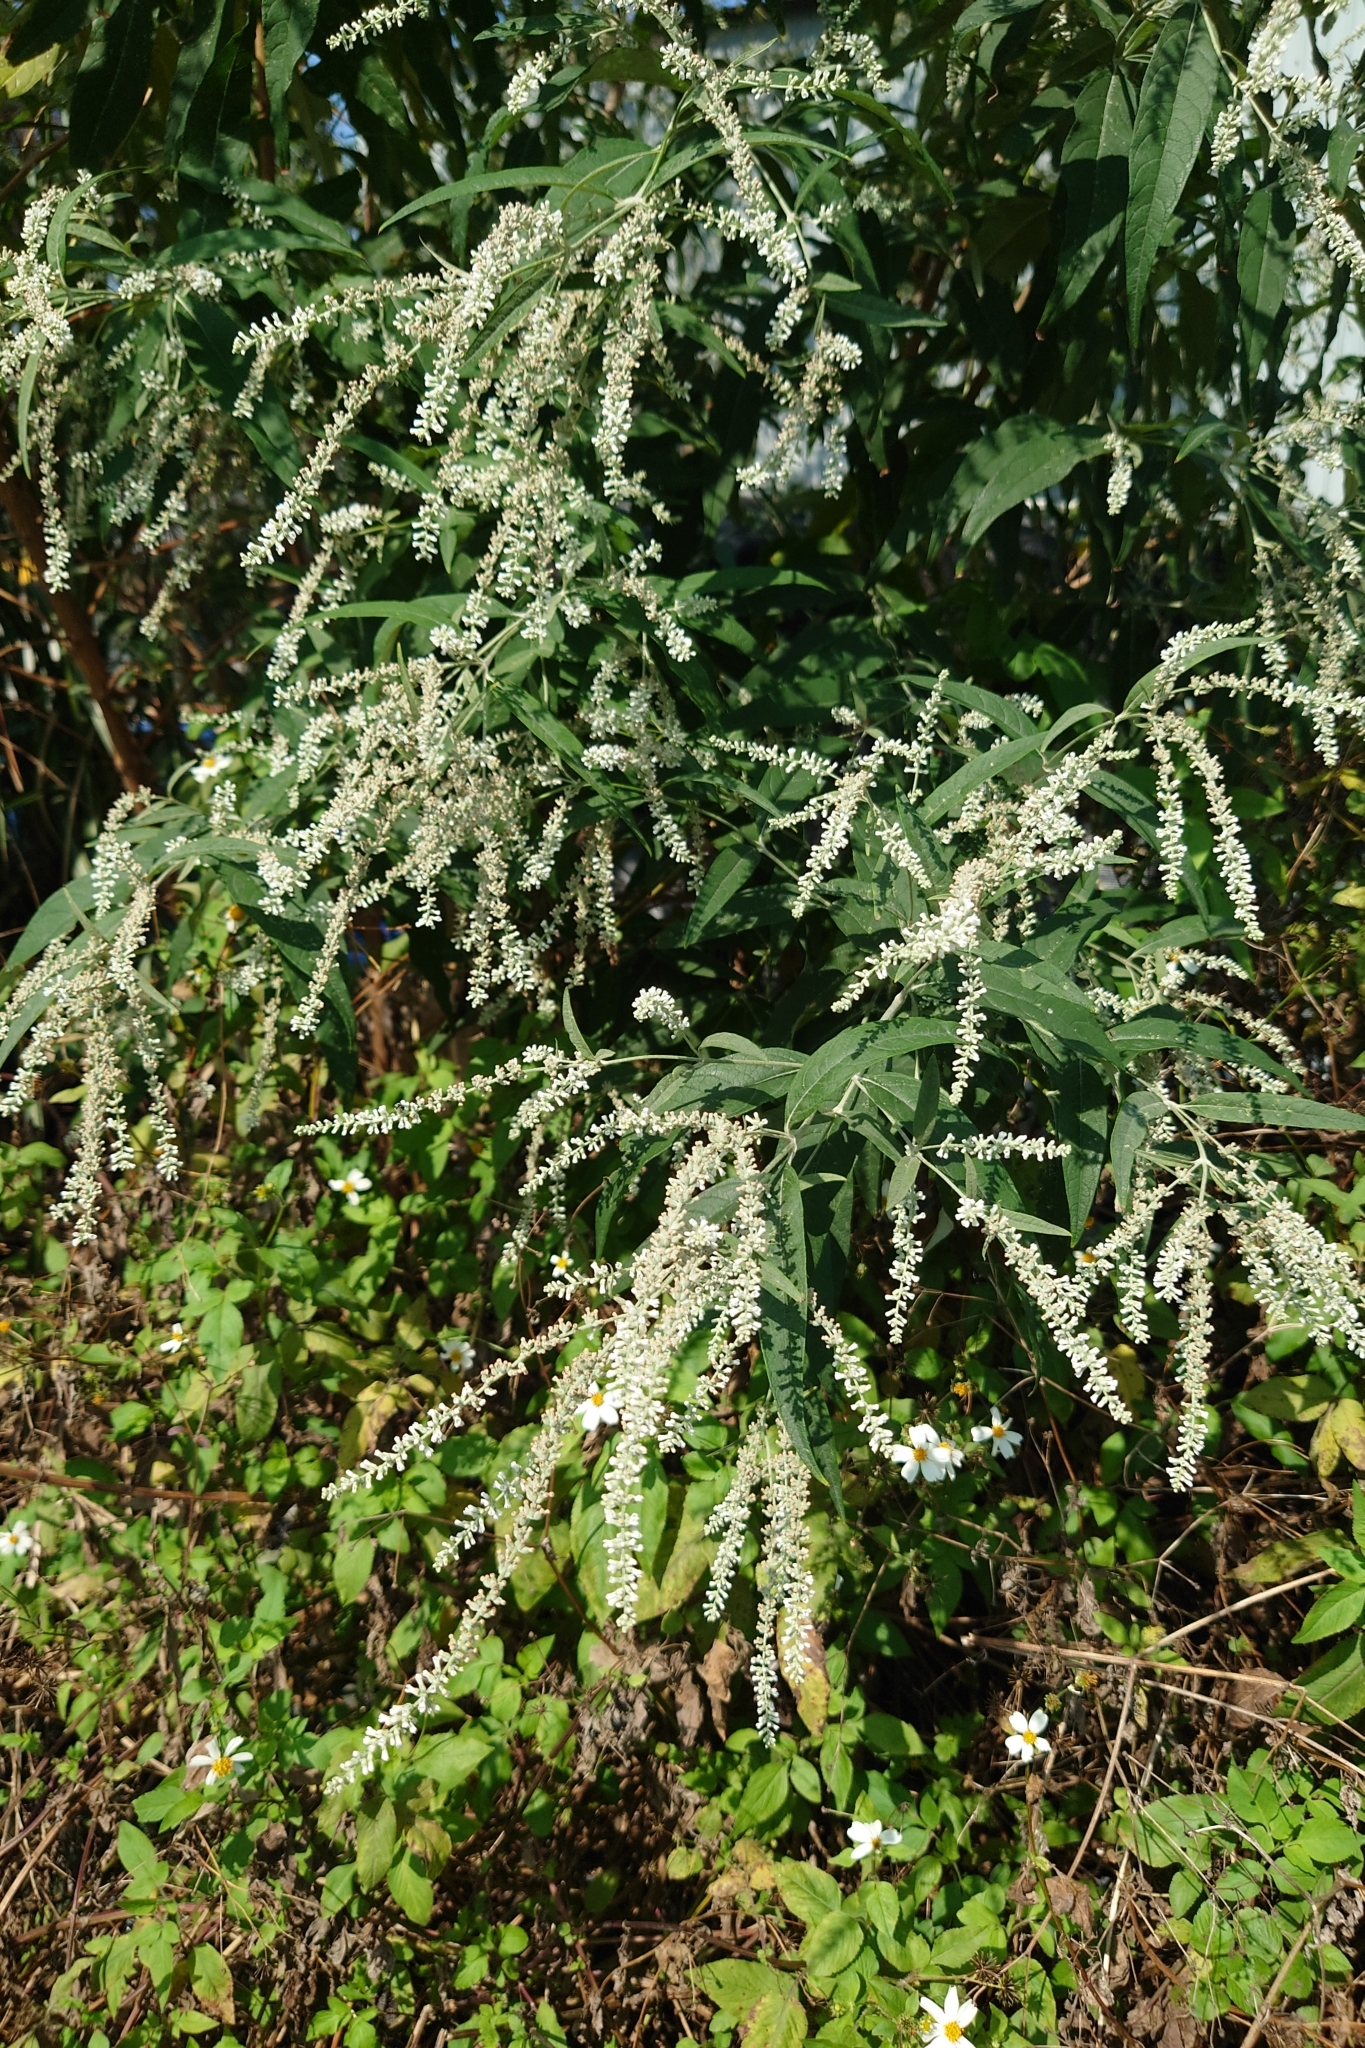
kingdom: Plantae
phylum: Tracheophyta
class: Magnoliopsida
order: Lamiales
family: Scrophulariaceae
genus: Buddleja
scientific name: Buddleja asiatica
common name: Dog tail
